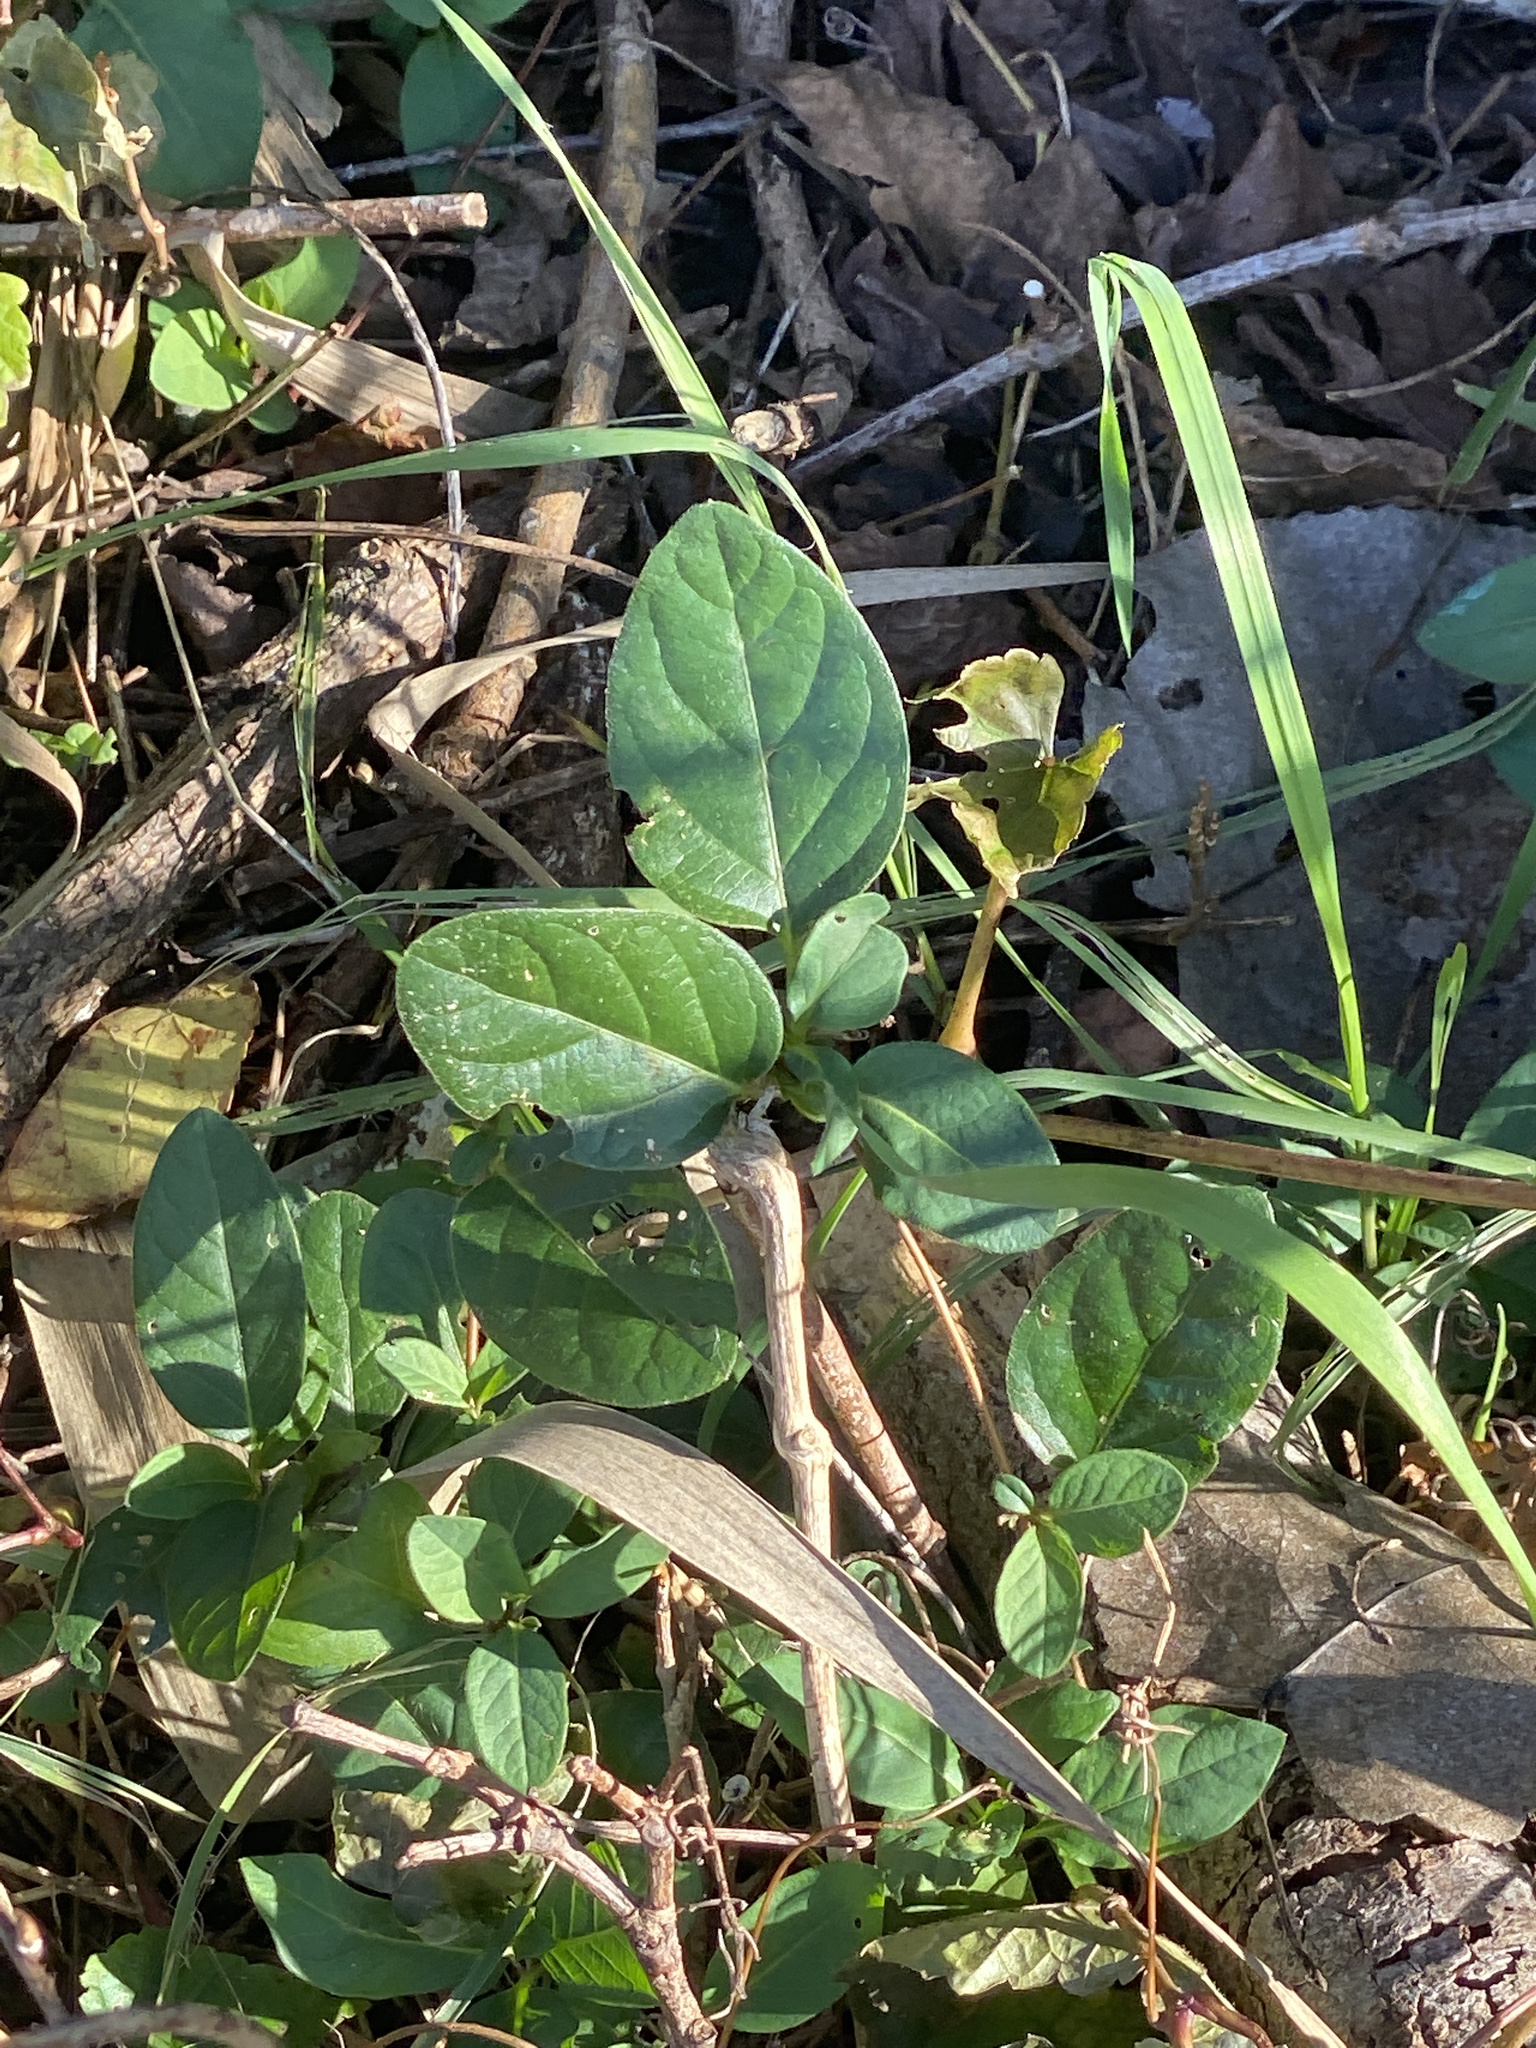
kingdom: Plantae
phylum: Tracheophyta
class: Magnoliopsida
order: Dipsacales
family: Caprifoliaceae
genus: Lonicera
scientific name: Lonicera japonica
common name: Japanese honeysuckle
